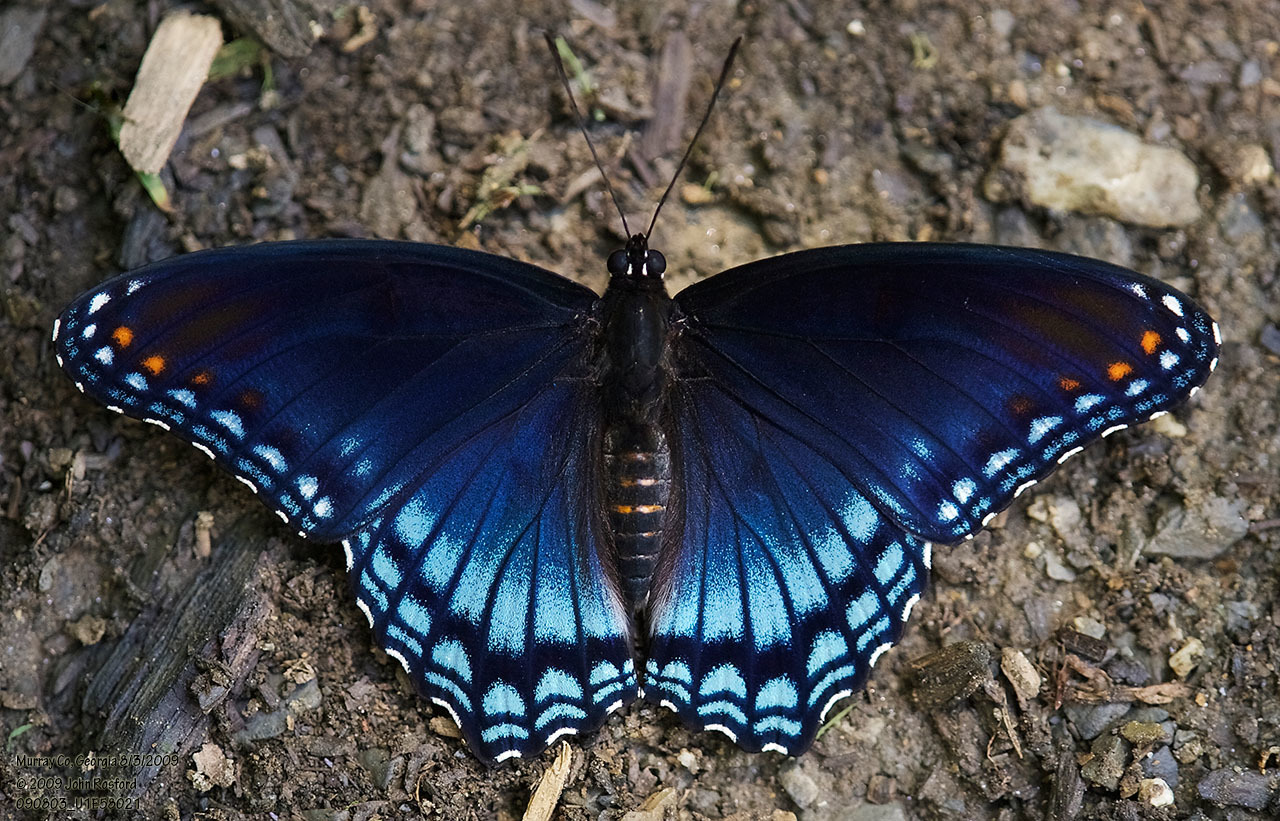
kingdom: Animalia
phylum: Arthropoda
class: Insecta
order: Lepidoptera
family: Nymphalidae
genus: Limenitis
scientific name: Limenitis arthemis
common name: Red-spotted admiral
